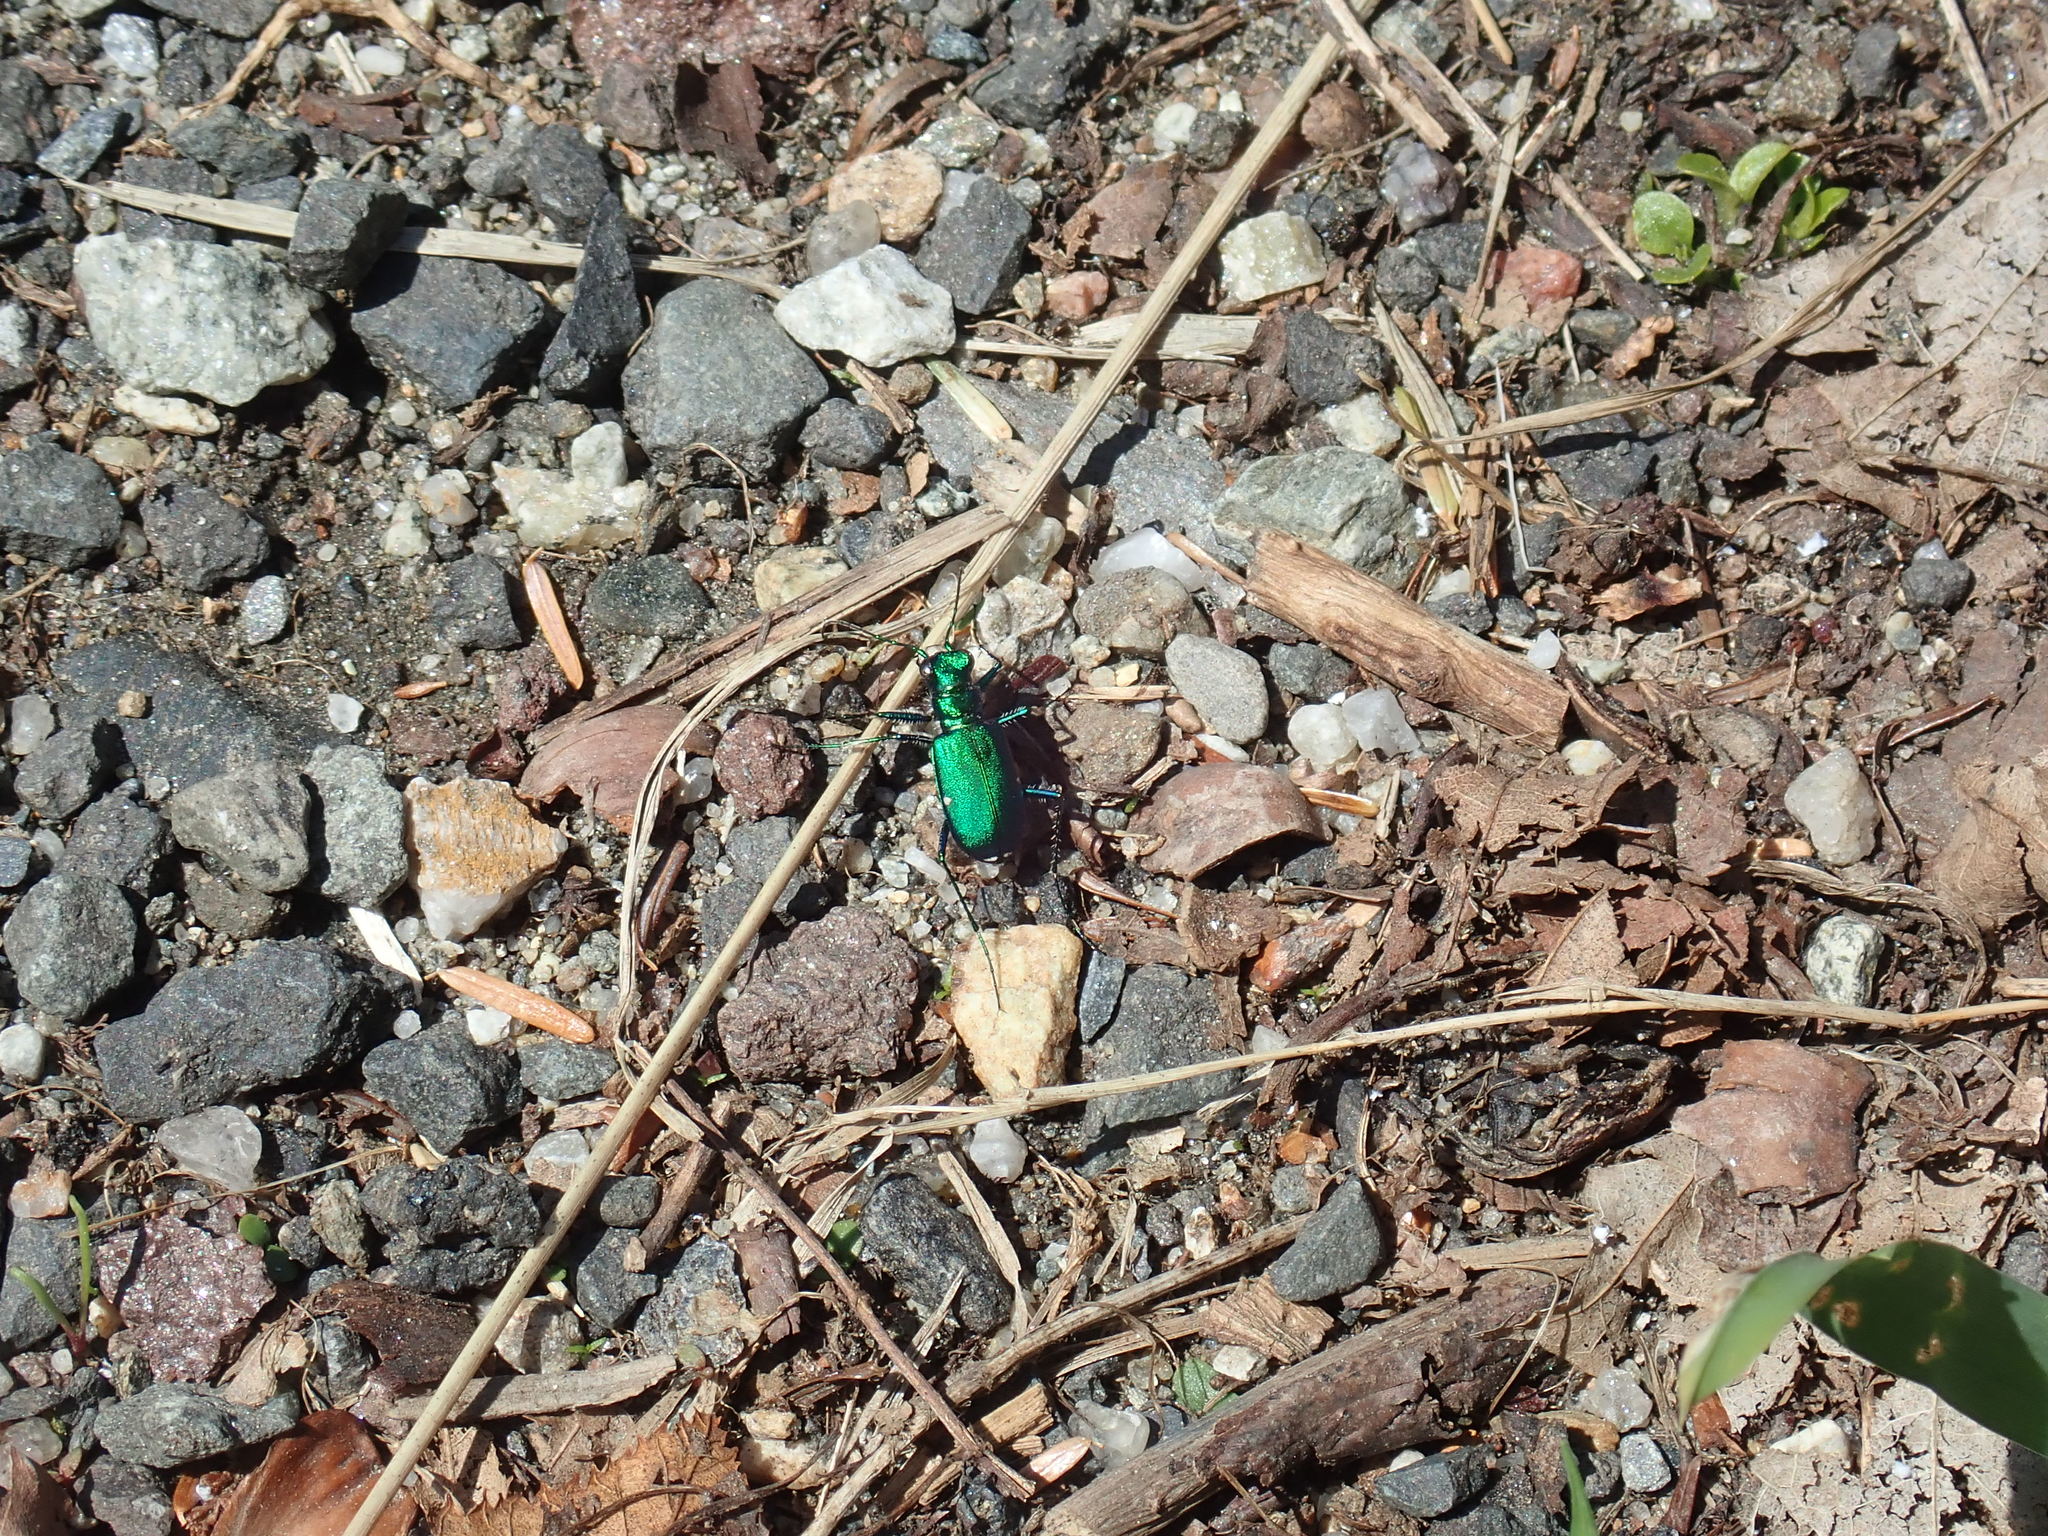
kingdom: Animalia
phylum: Arthropoda
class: Insecta
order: Coleoptera
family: Carabidae
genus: Cicindela
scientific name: Cicindela sexguttata
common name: Six-spotted tiger beetle
